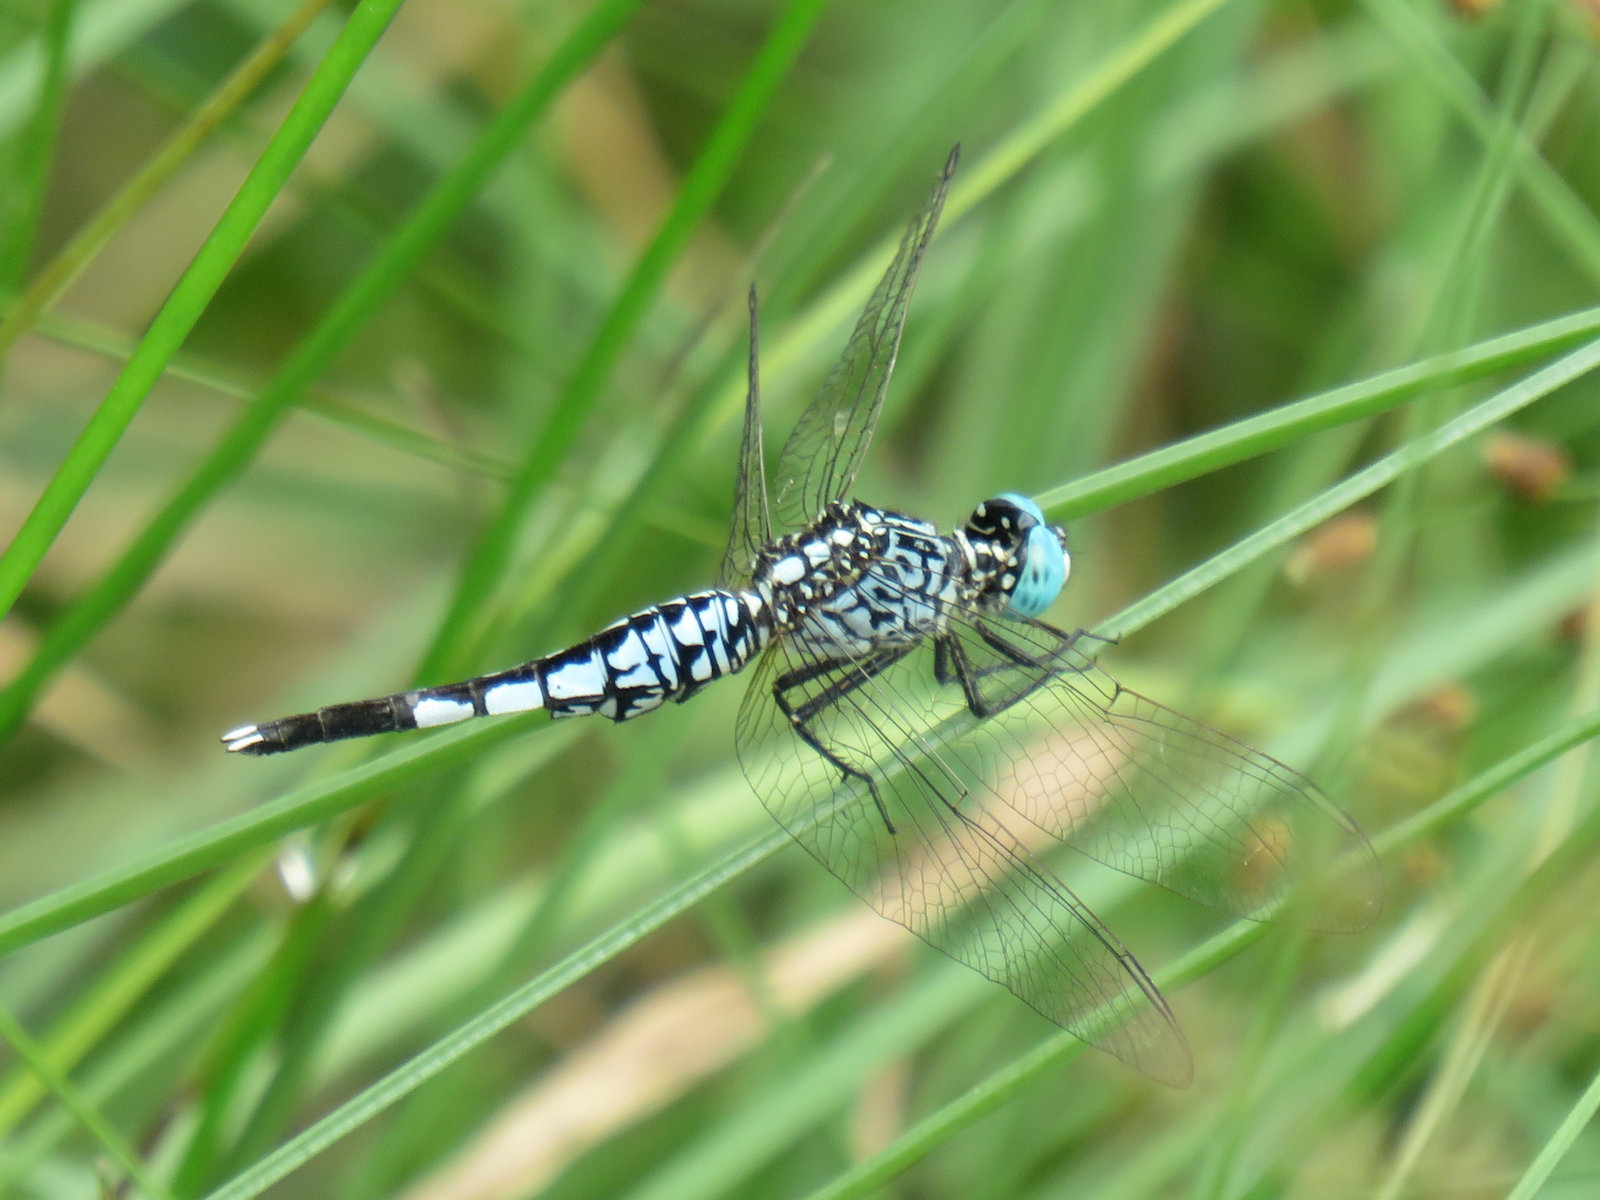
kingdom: Animalia
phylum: Arthropoda
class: Insecta
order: Odonata
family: Libellulidae
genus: Acisoma
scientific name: Acisoma panorpoides
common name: Asian pintail
